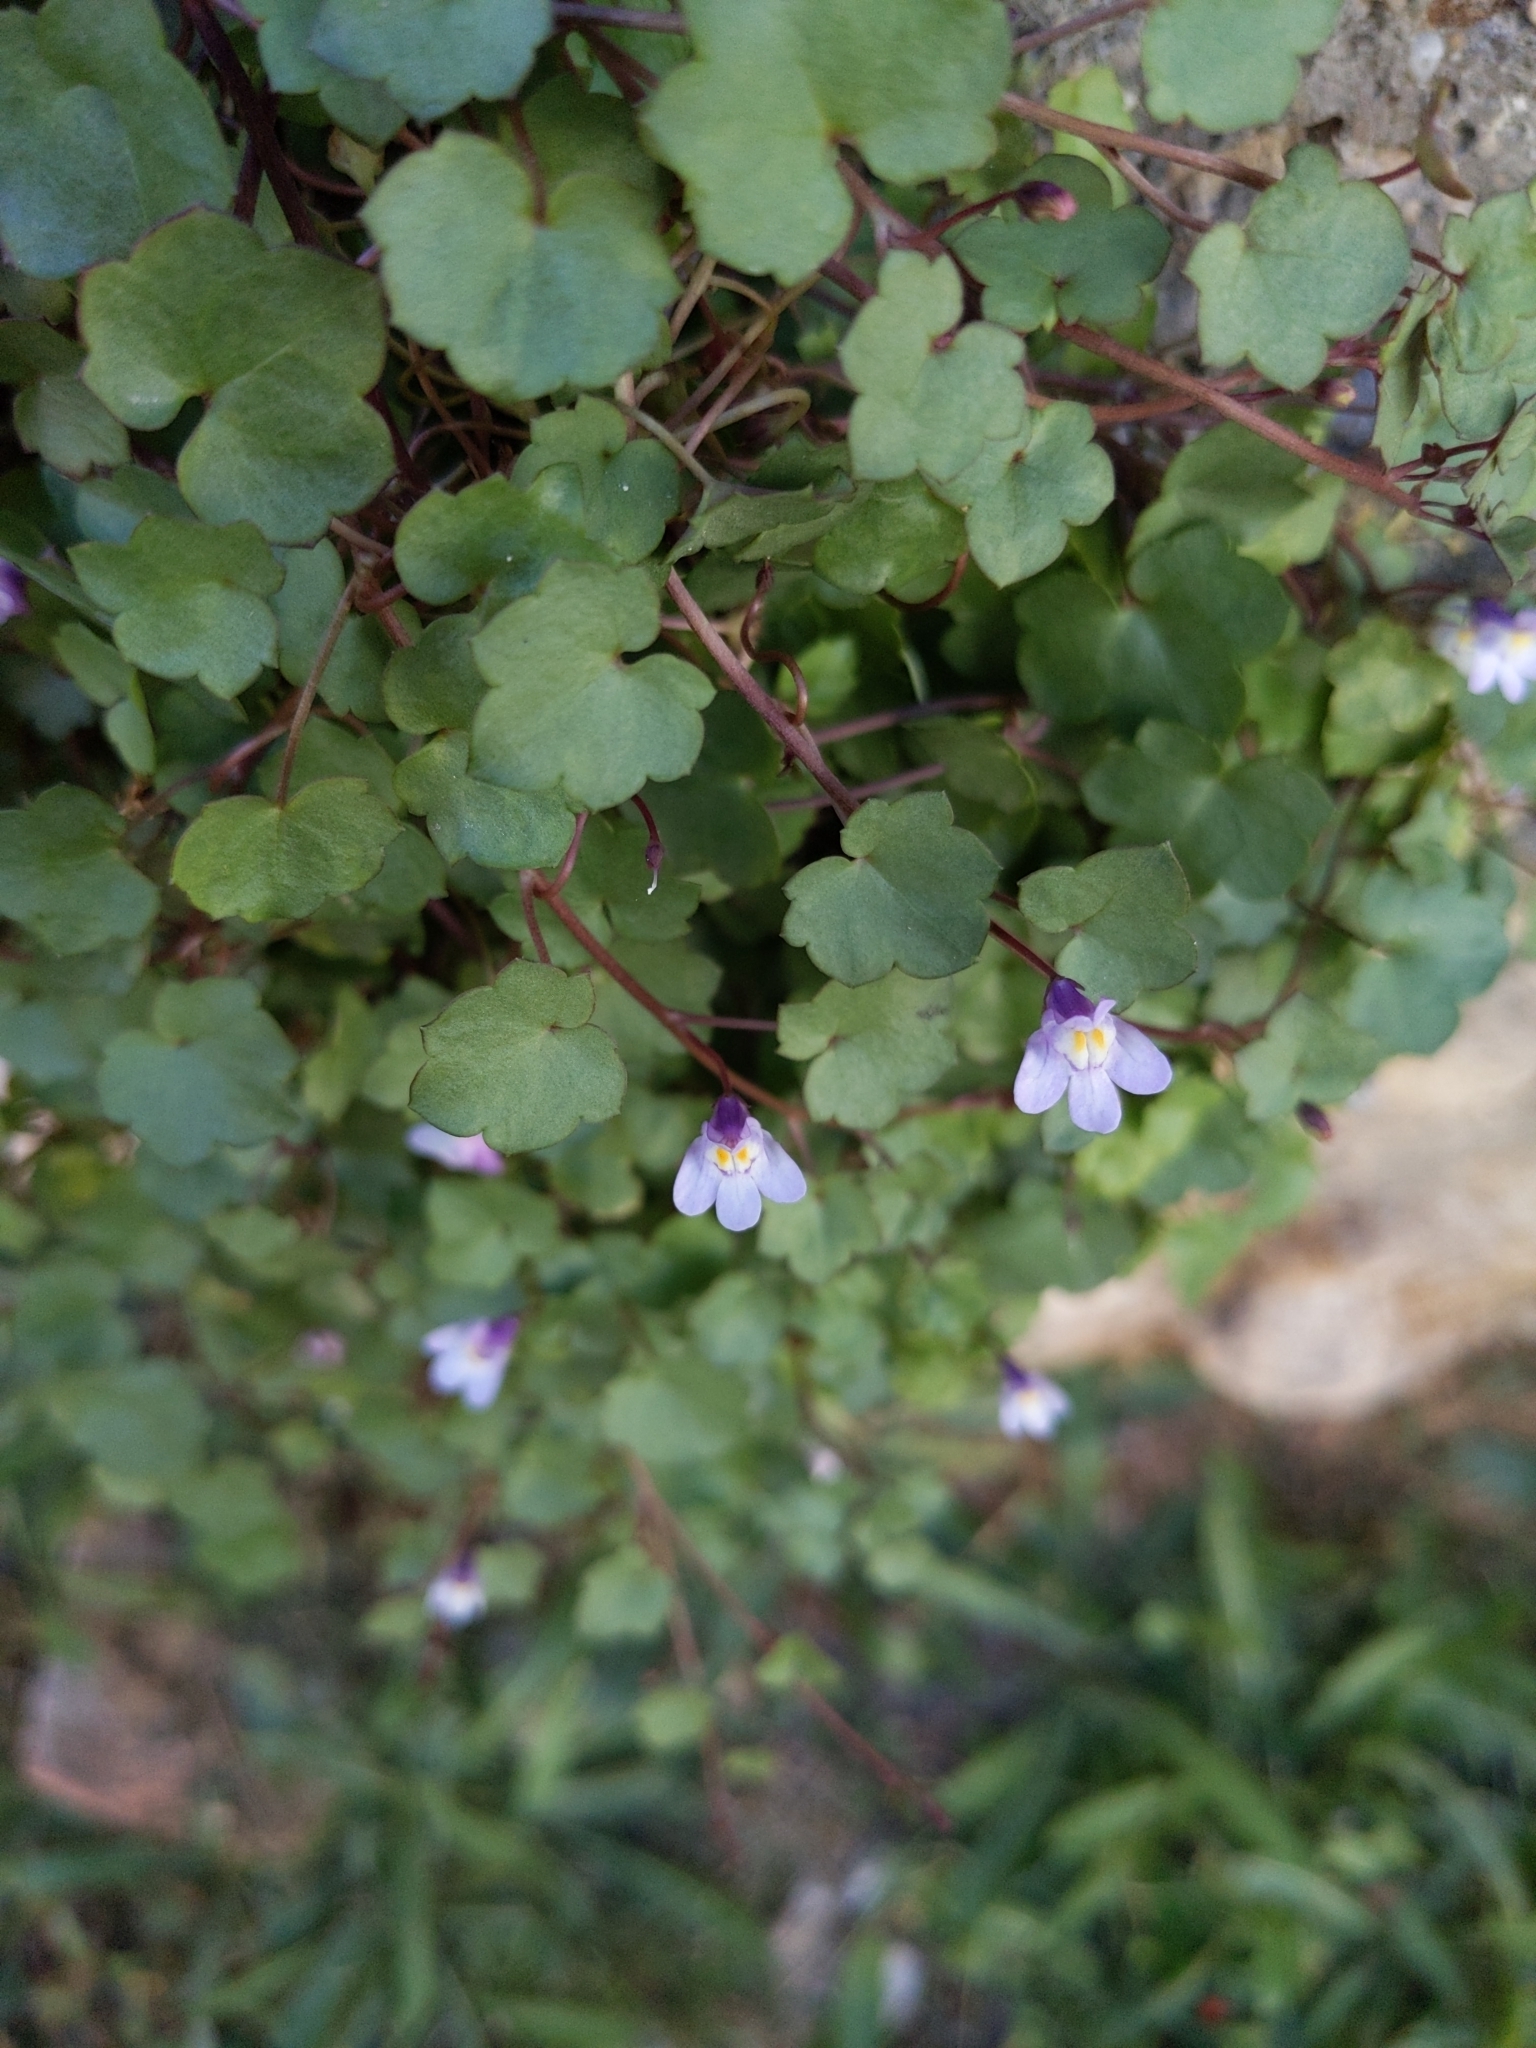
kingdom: Plantae
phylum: Tracheophyta
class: Magnoliopsida
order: Lamiales
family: Plantaginaceae
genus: Cymbalaria
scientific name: Cymbalaria muralis
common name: Ivy-leaved toadflax
